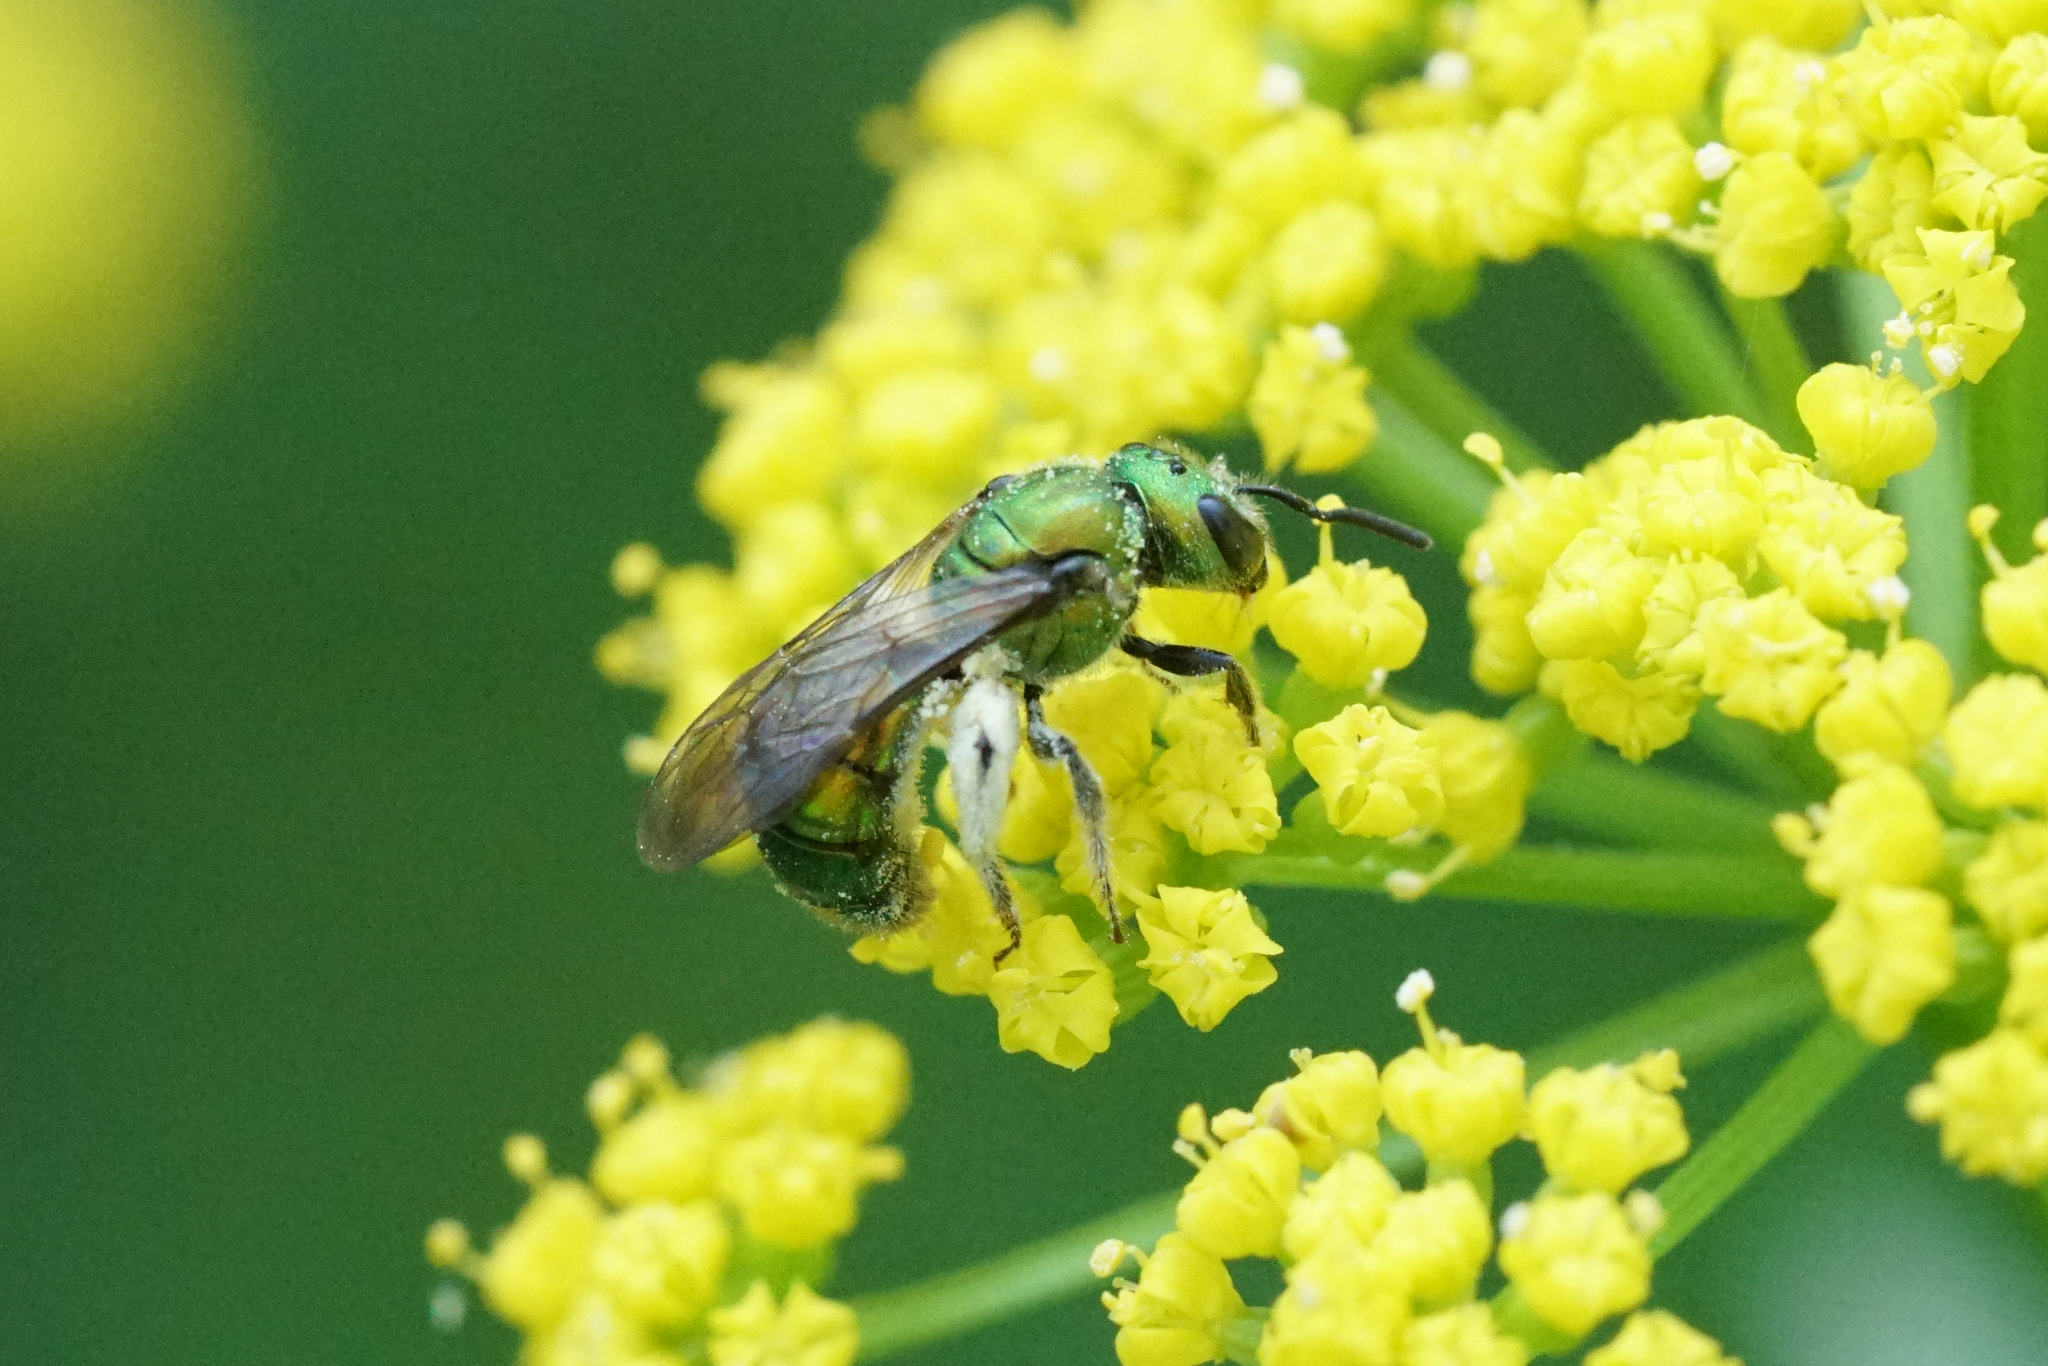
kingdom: Animalia
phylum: Arthropoda
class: Insecta
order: Hymenoptera
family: Halictidae
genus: Augochlora
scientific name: Augochlora pura
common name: Pure green sweat bee
